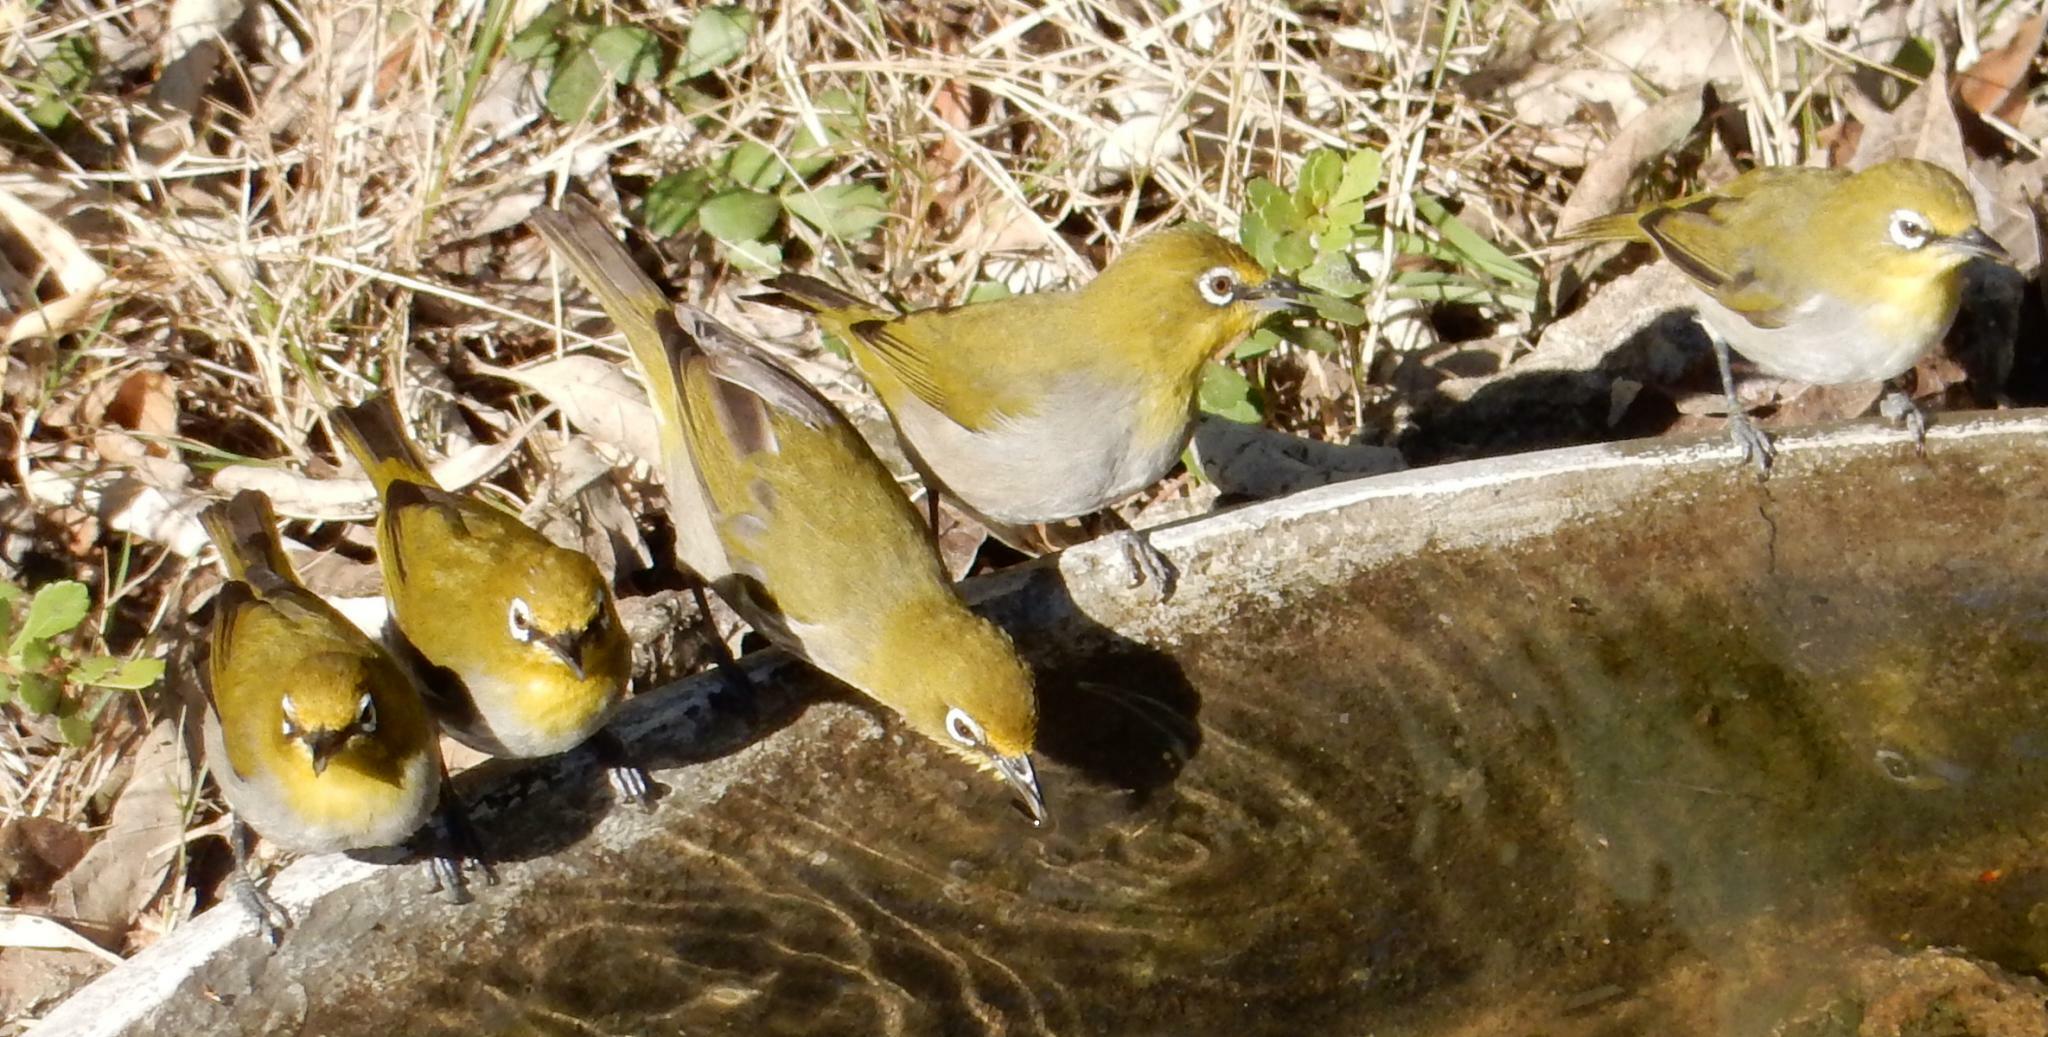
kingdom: Animalia
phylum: Chordata
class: Aves
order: Passeriformes
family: Zosteropidae
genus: Zosterops
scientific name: Zosterops virens
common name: Cape white-eye
